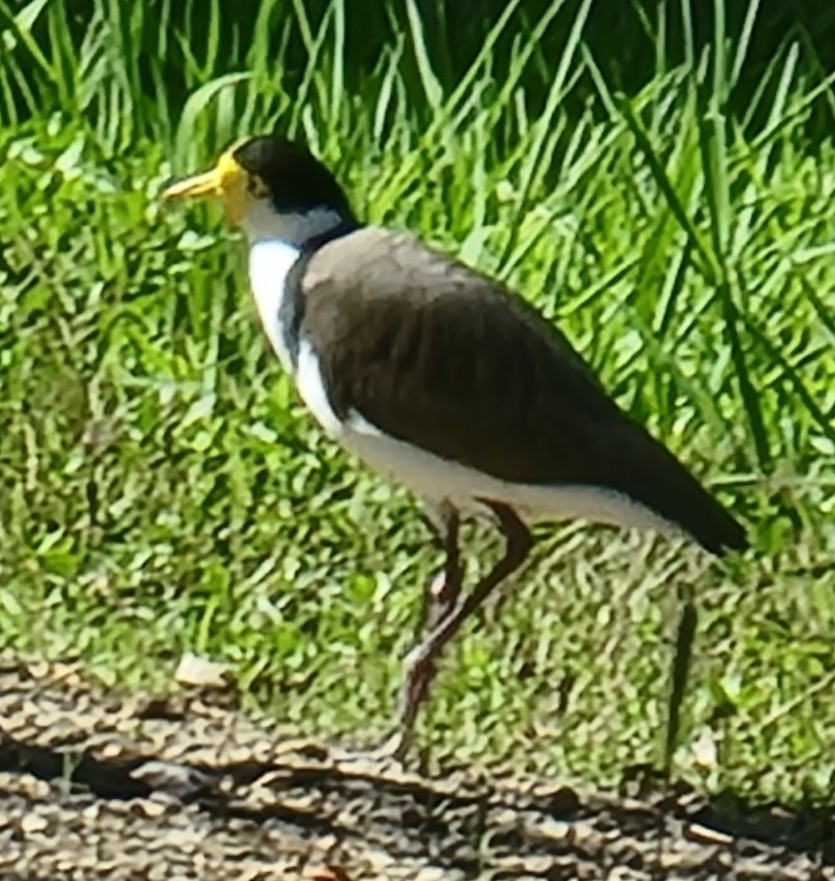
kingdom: Animalia
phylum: Chordata
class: Aves
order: Charadriiformes
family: Charadriidae
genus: Vanellus
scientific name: Vanellus miles
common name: Masked lapwing
